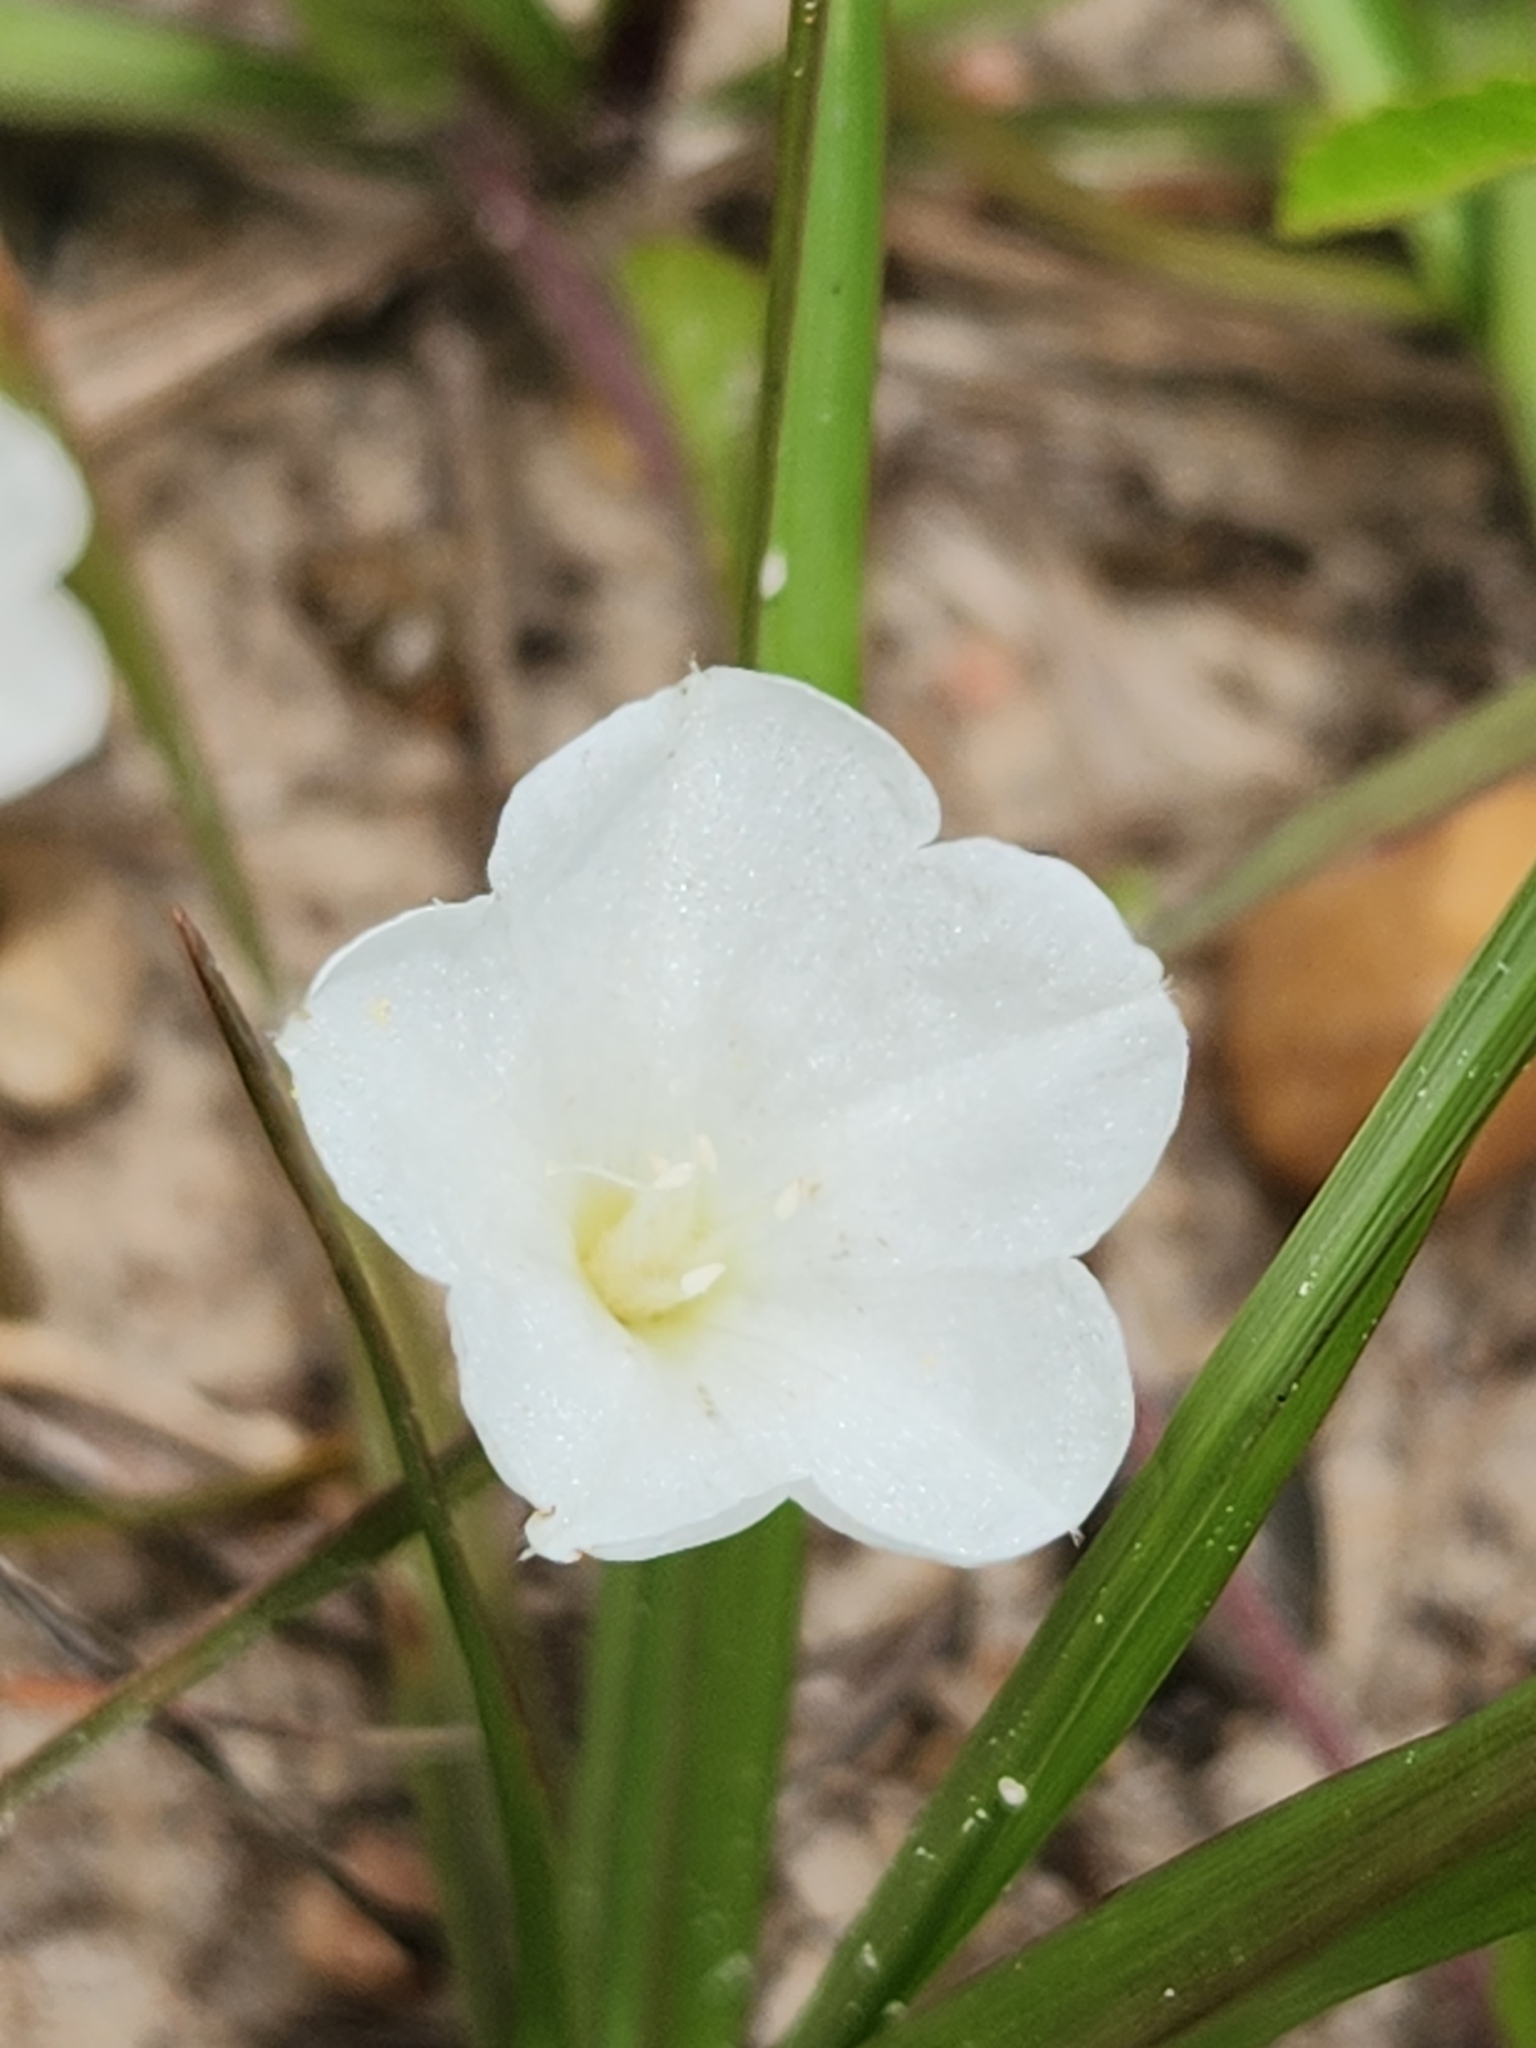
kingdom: Plantae
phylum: Tracheophyta
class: Magnoliopsida
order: Solanales
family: Convolvulaceae
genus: Stylisma
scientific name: Stylisma villosa
